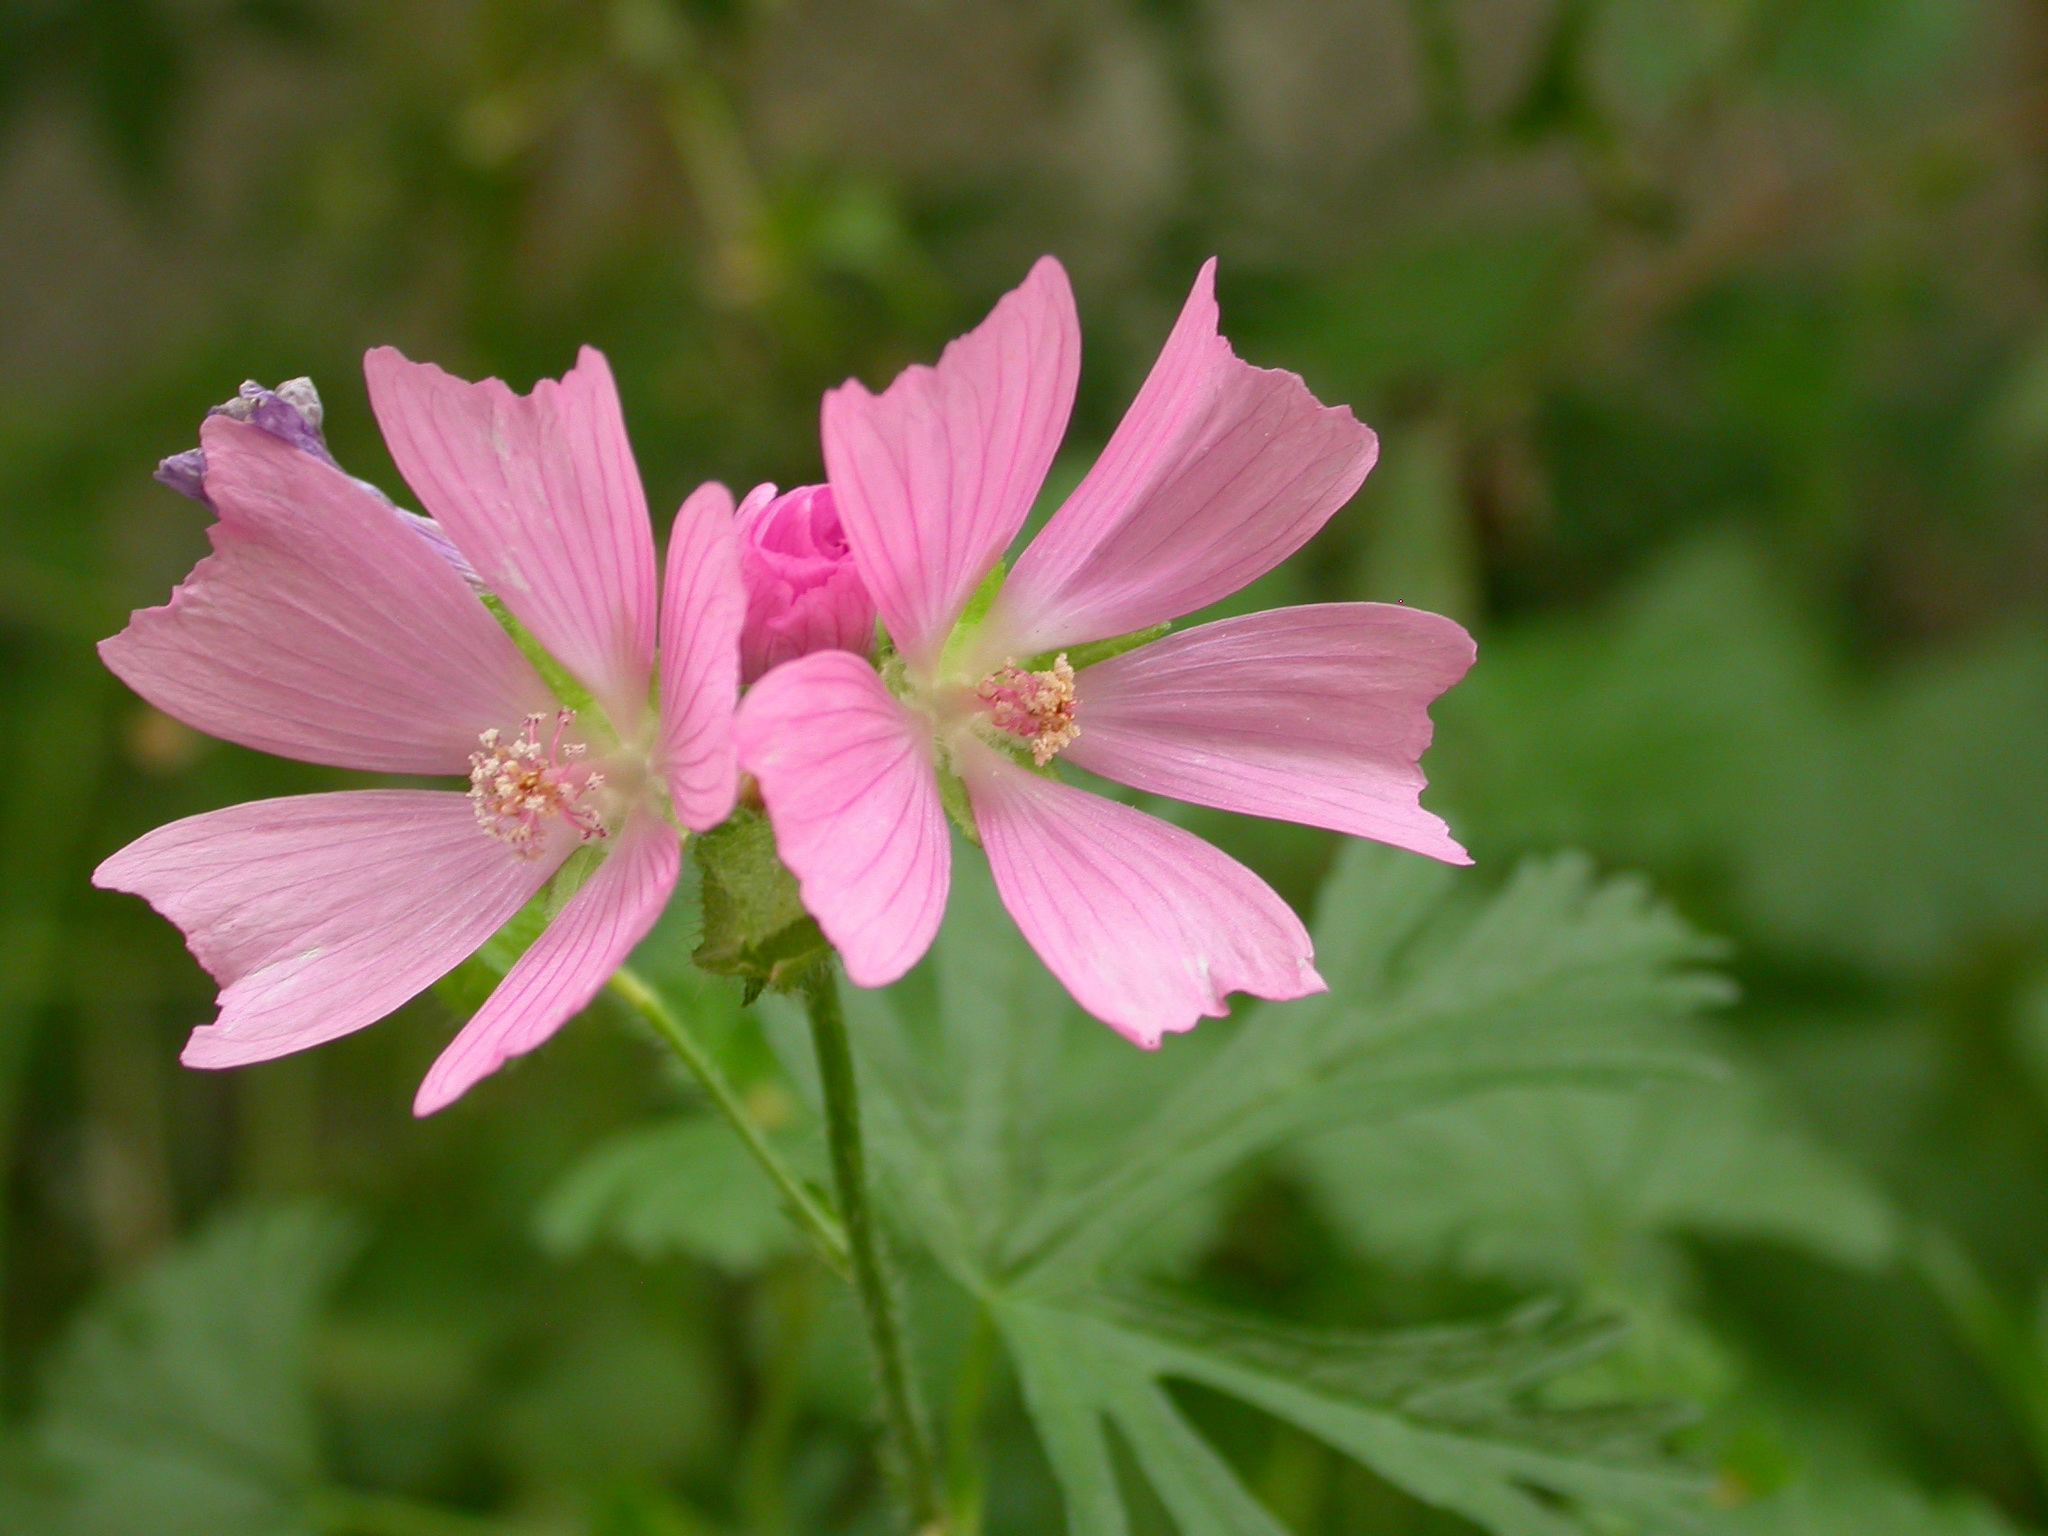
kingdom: Plantae
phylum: Tracheophyta
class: Magnoliopsida
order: Malvales
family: Malvaceae
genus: Malva
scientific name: Malva moschata
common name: Musk mallow
